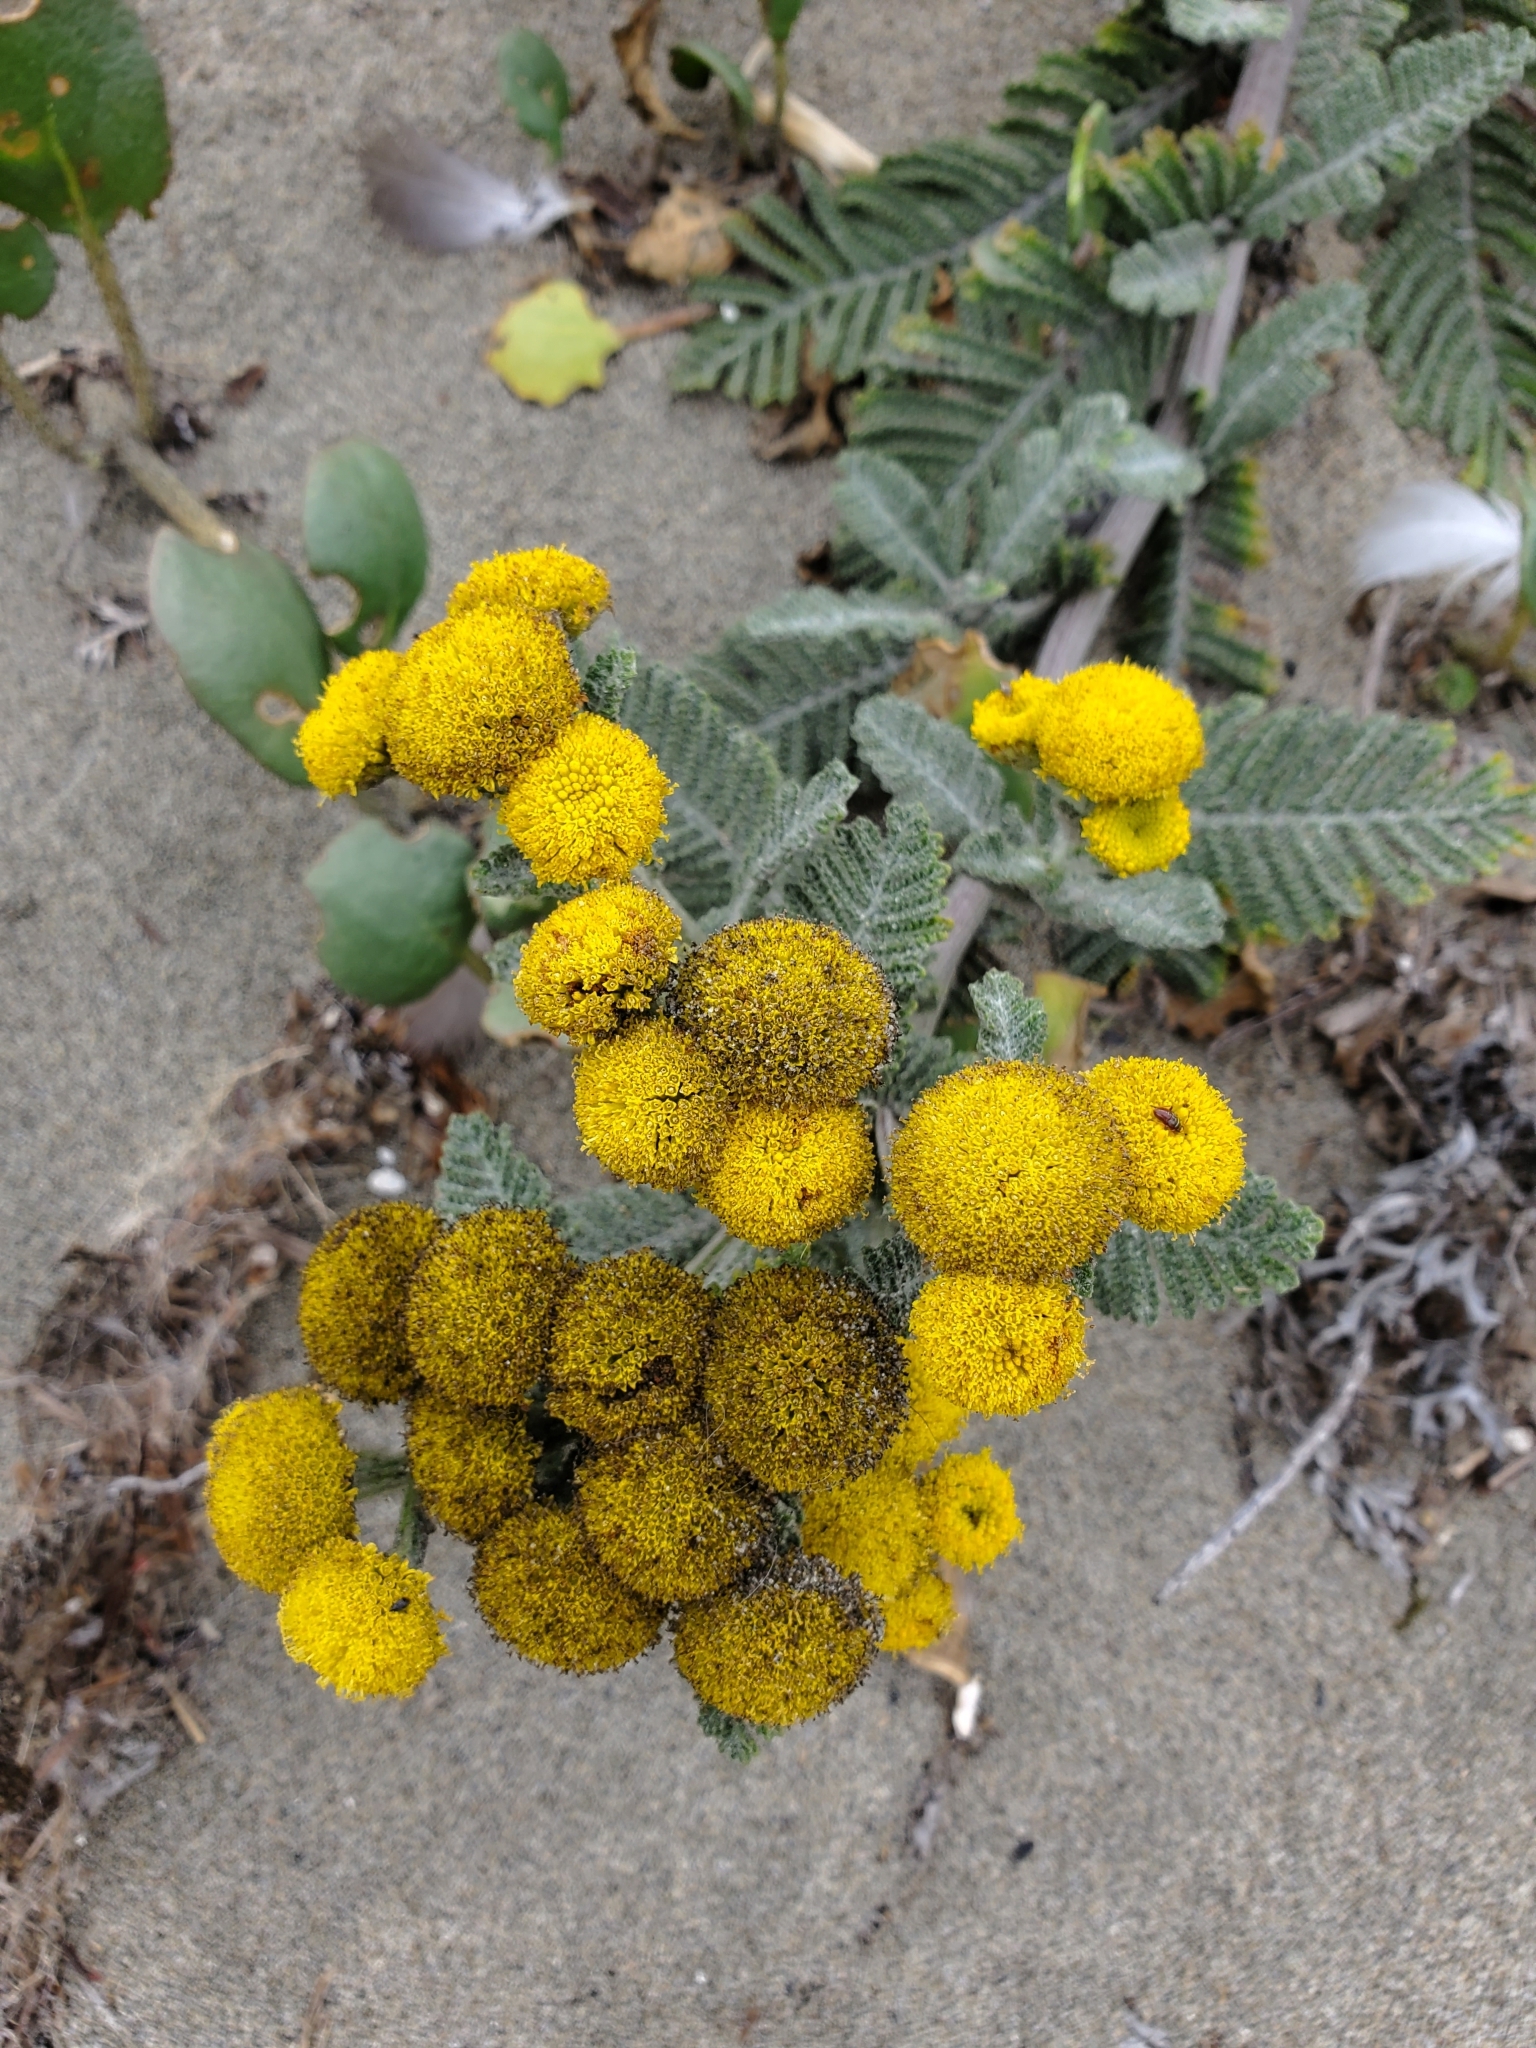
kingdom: Plantae
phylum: Tracheophyta
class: Magnoliopsida
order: Asterales
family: Asteraceae
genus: Tanacetum
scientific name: Tanacetum bipinnatum
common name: Dwarf tansy
